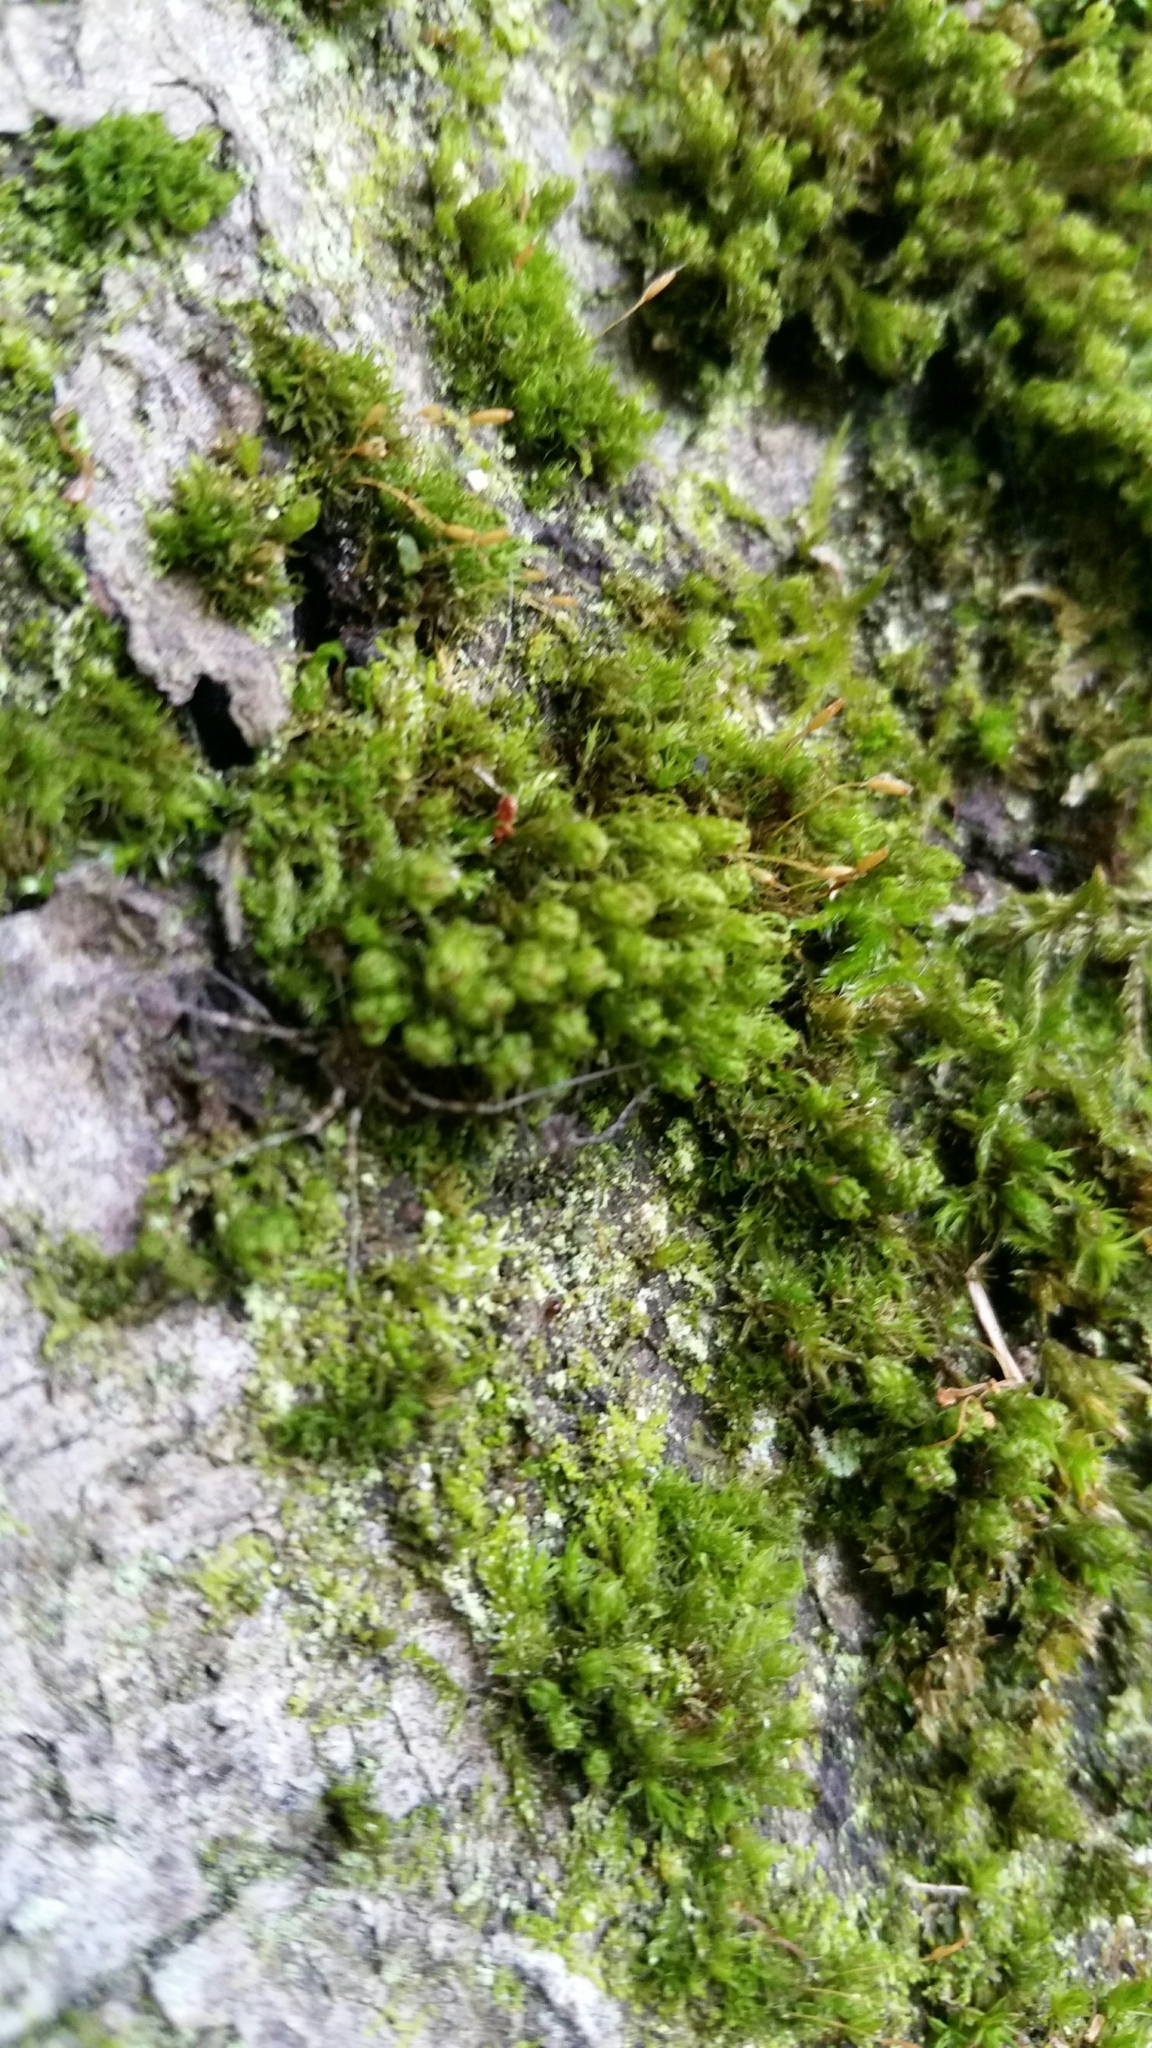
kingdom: Plantae
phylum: Bryophyta
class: Bryopsida
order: Orthotrichales
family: Orthotrichaceae
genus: Ulota
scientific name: Ulota crispa
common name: Crisped pincushion moss
